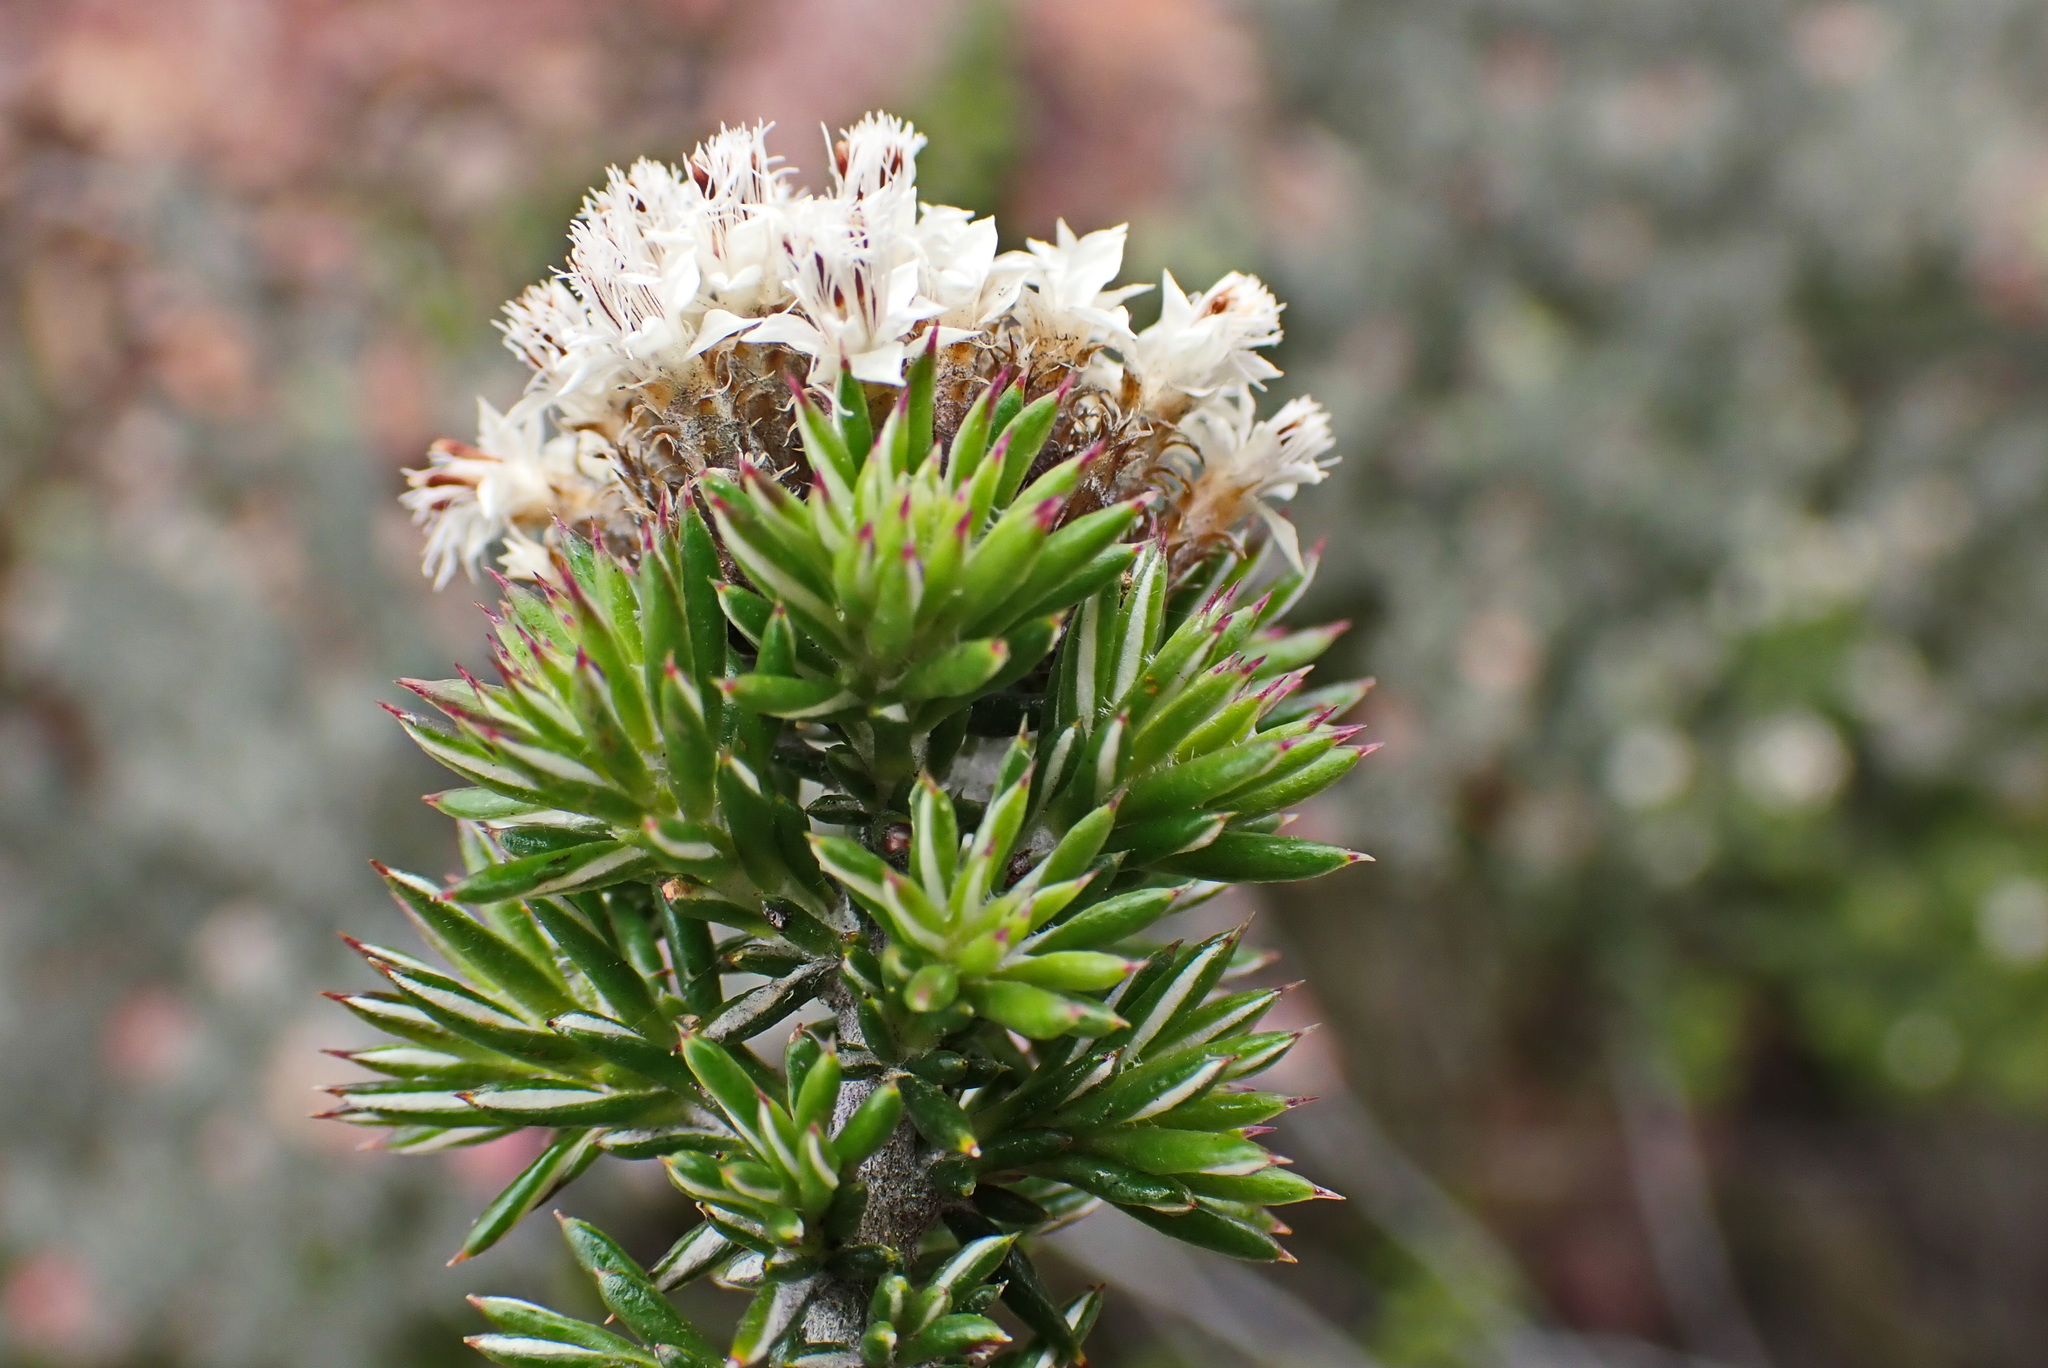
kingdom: Plantae
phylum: Tracheophyta
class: Magnoliopsida
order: Asterales
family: Asteraceae
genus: Metalasia
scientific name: Metalasia massonii
